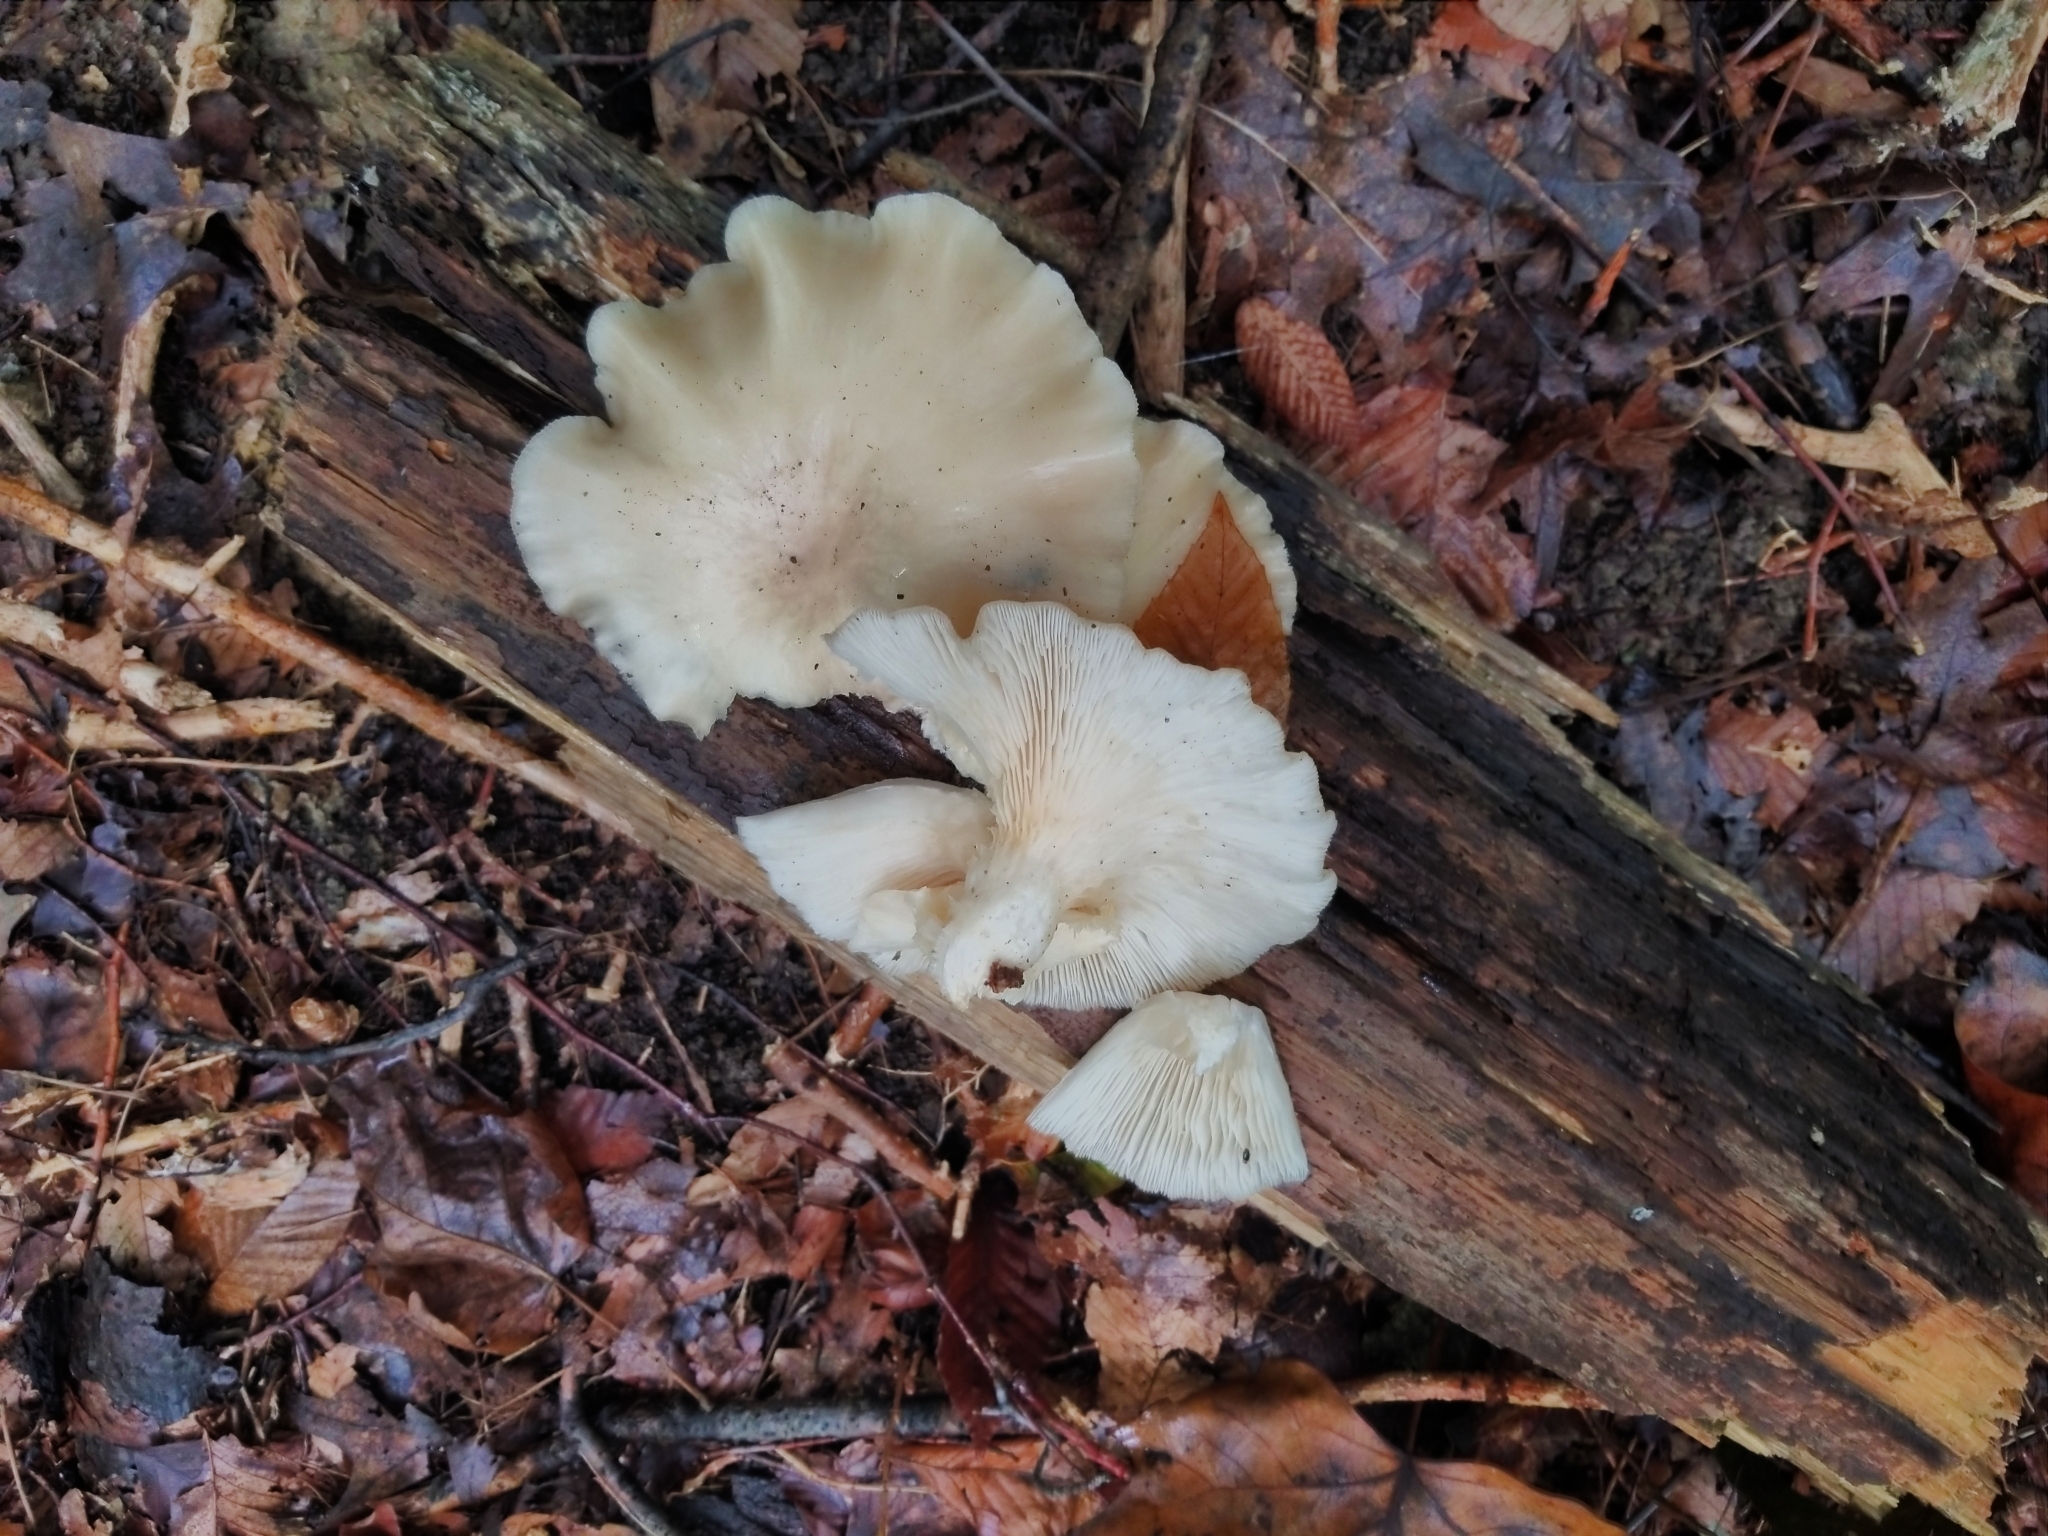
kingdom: Fungi
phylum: Basidiomycota
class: Agaricomycetes
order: Agaricales
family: Pleurotaceae
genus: Pleurotus
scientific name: Pleurotus ostreatus
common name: Oyster mushroom
